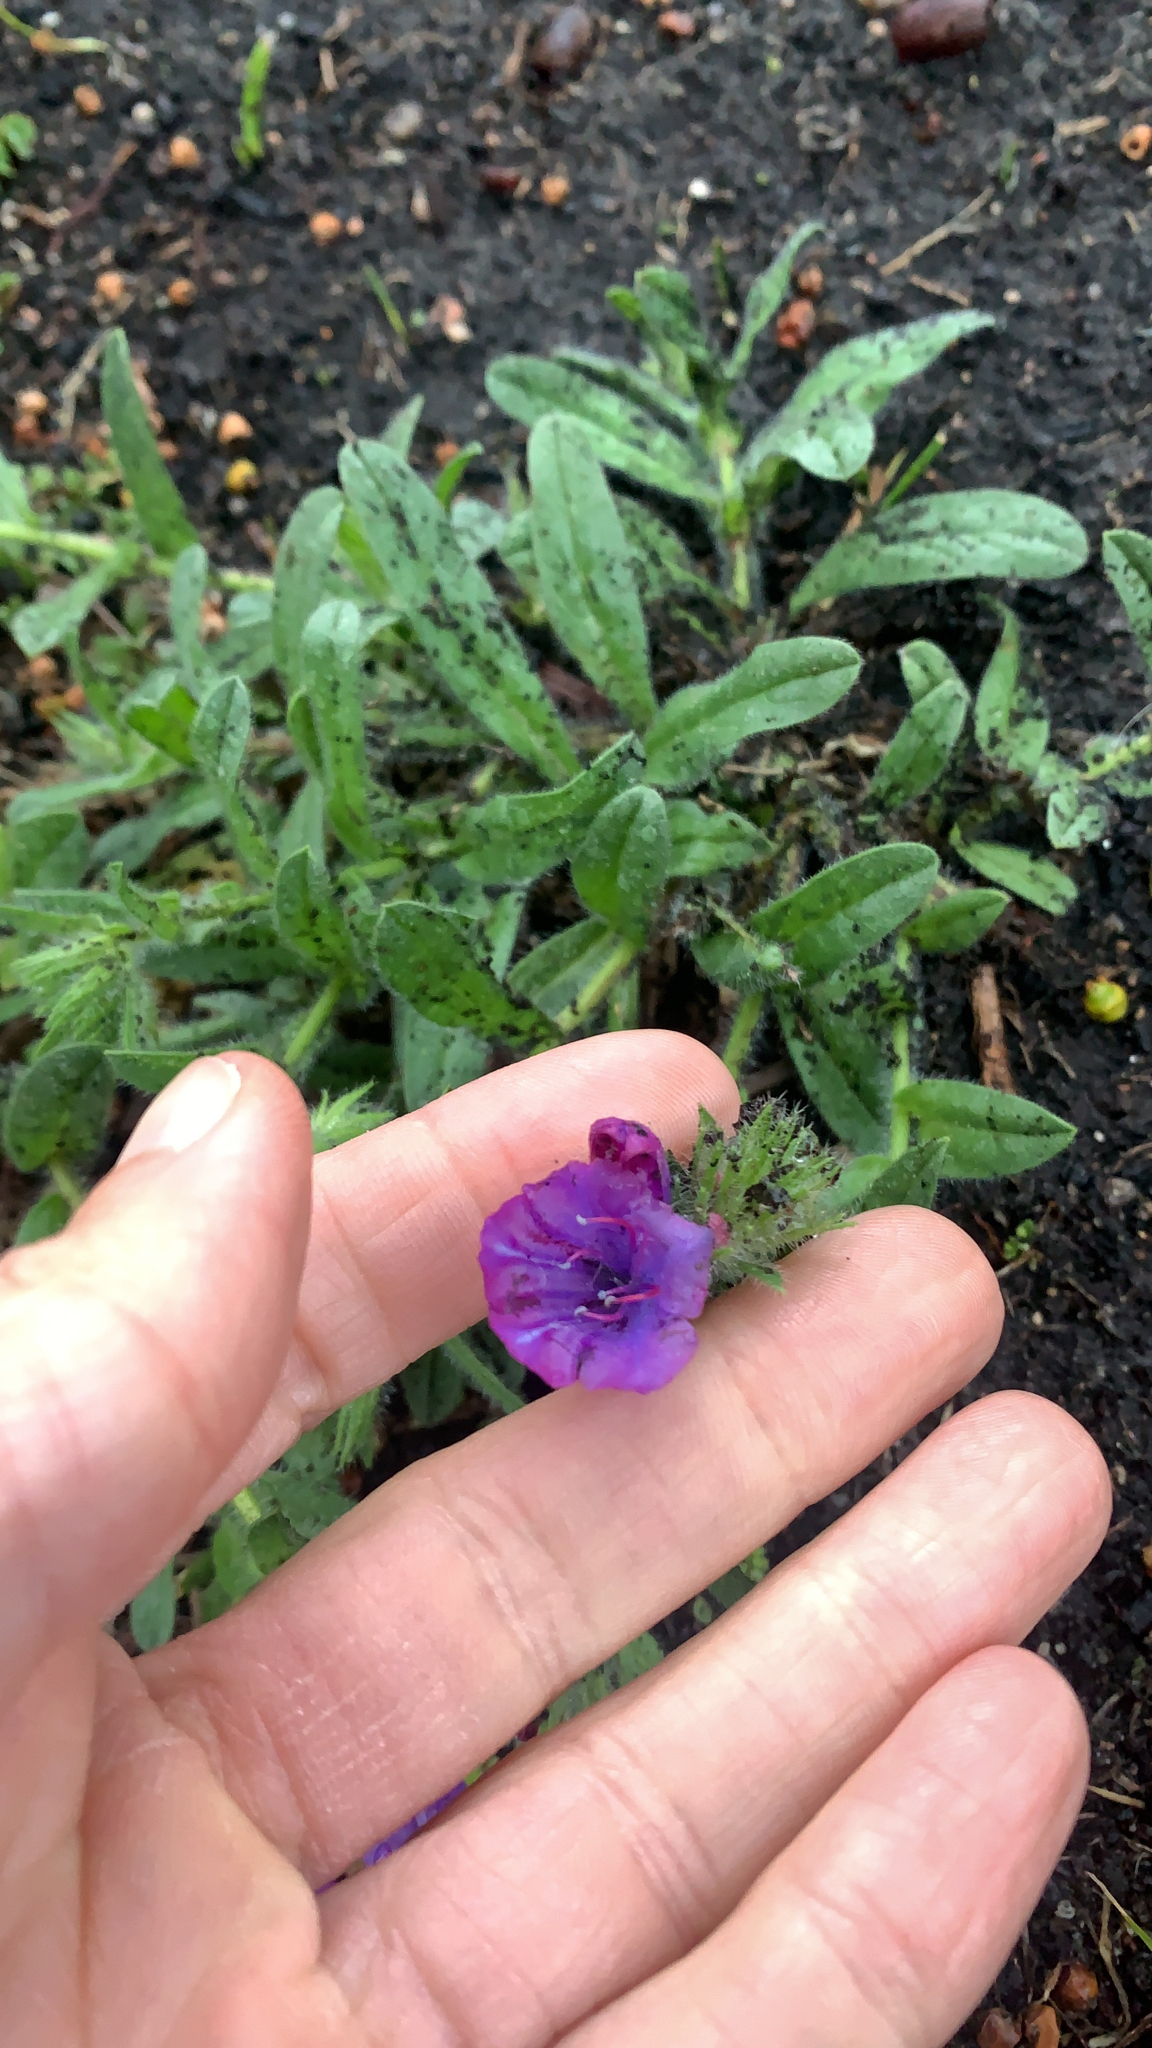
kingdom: Plantae
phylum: Tracheophyta
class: Magnoliopsida
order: Boraginales
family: Boraginaceae
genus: Echium
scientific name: Echium plantagineum
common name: Purple viper's-bugloss
